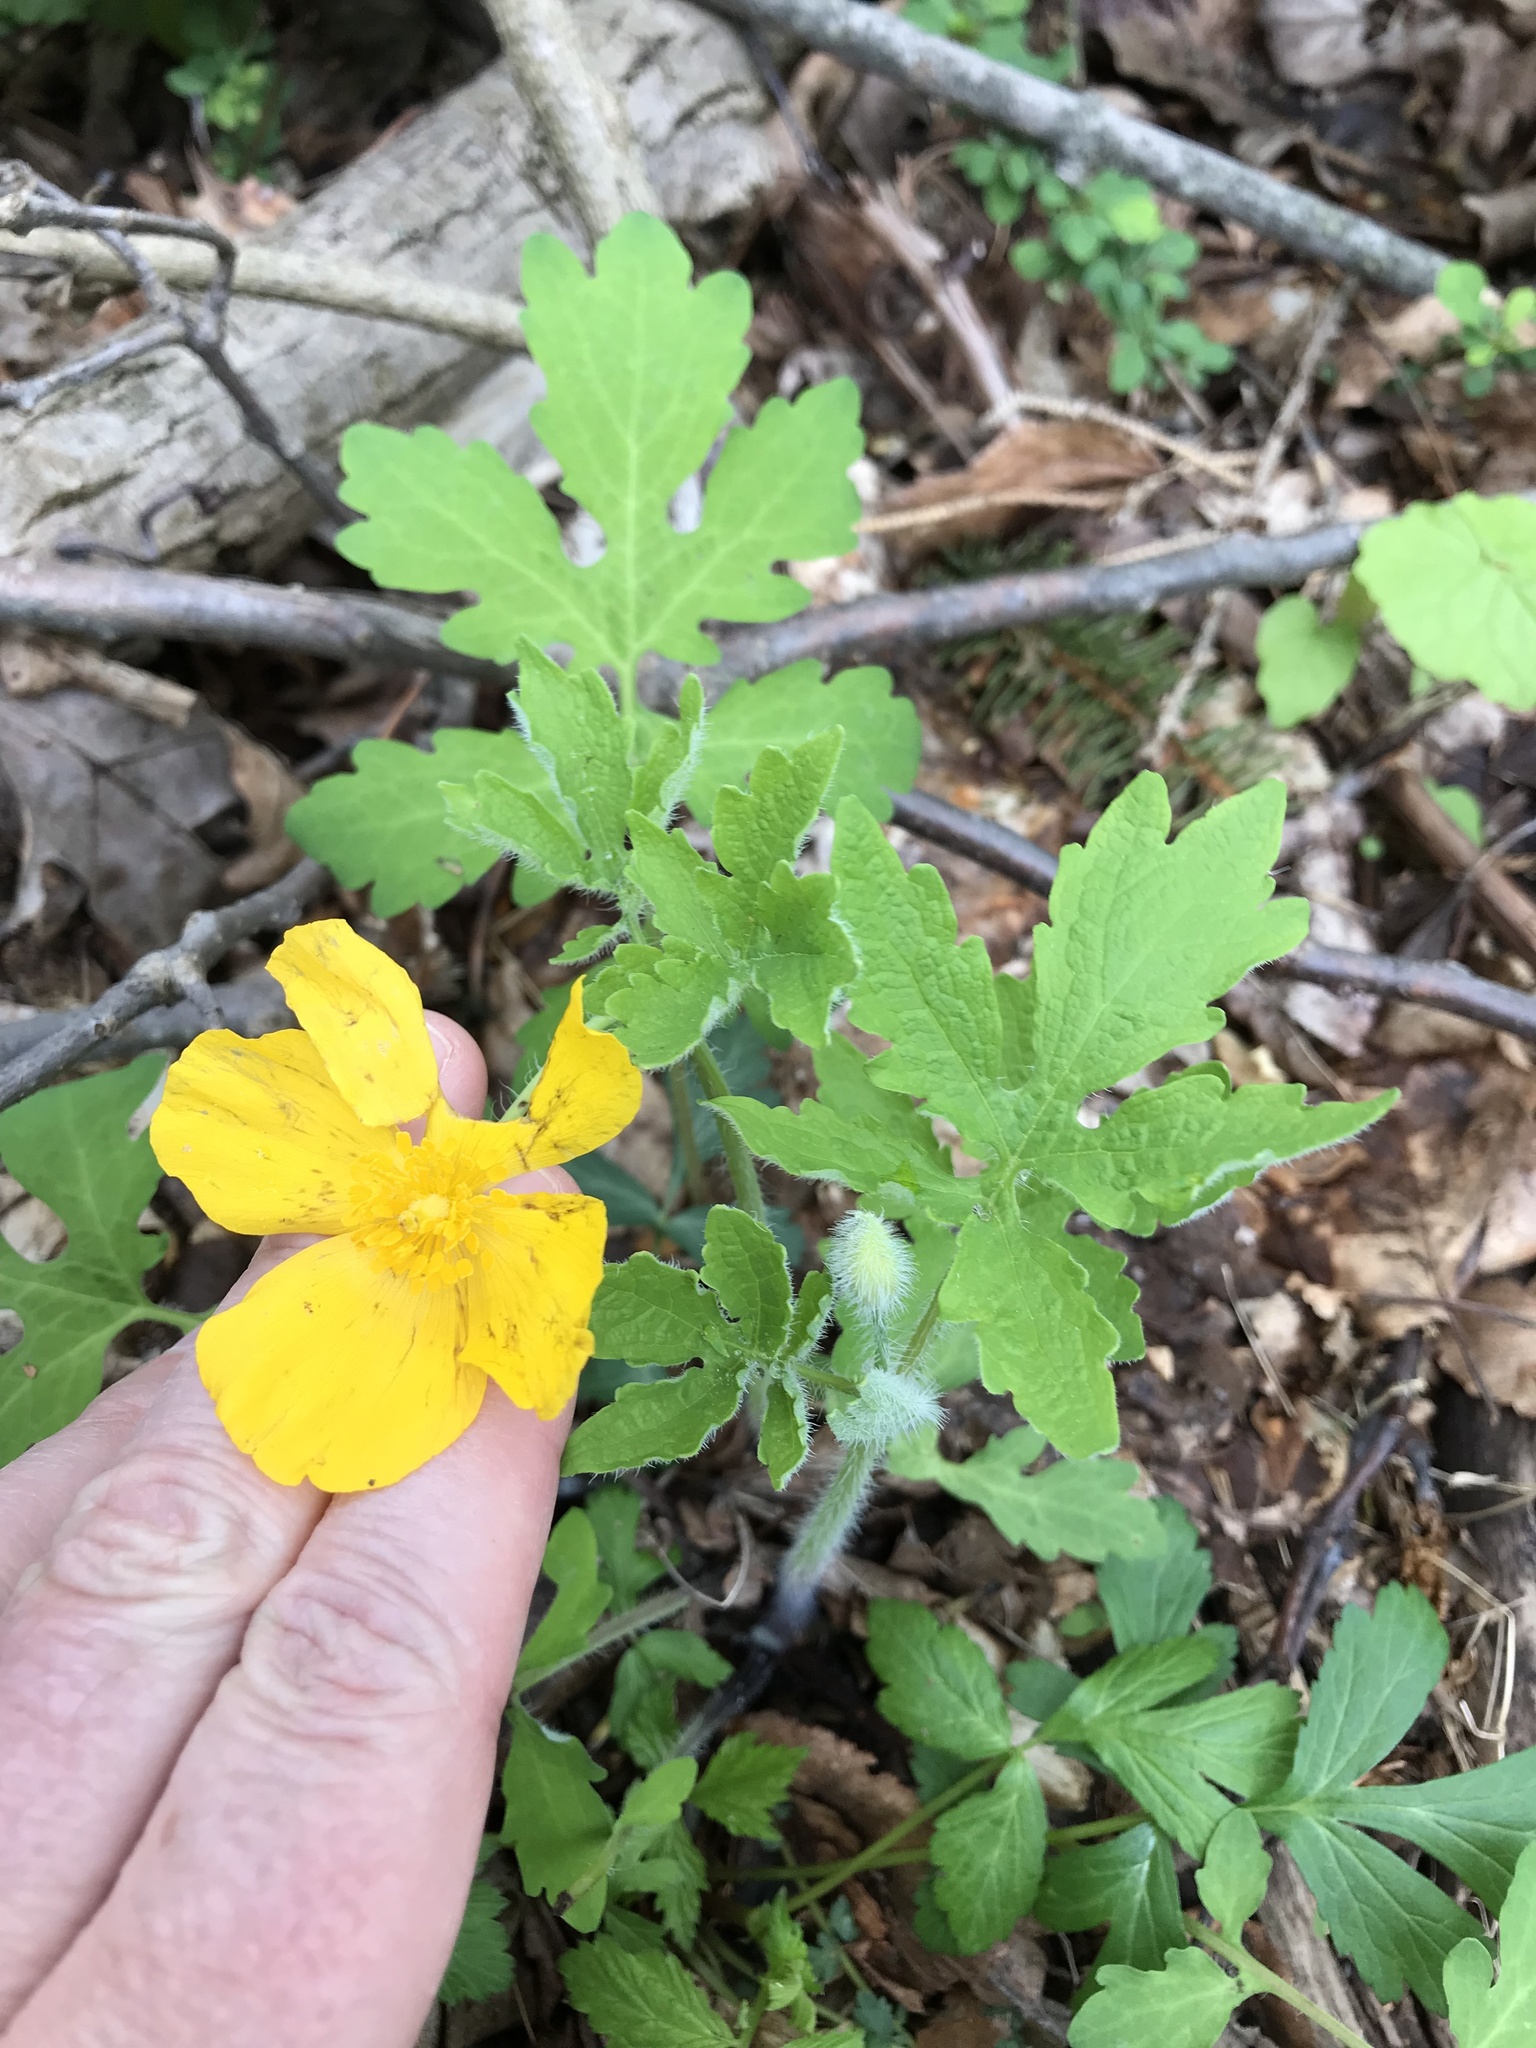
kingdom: Plantae
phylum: Tracheophyta
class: Magnoliopsida
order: Ranunculales
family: Papaveraceae
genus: Stylophorum
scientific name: Stylophorum diphyllum
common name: Celandine poppy
